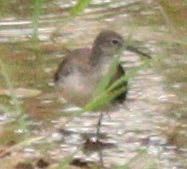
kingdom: Animalia
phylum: Chordata
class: Aves
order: Charadriiformes
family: Scolopacidae
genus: Tringa
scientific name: Tringa ochropus
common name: Green sandpiper
